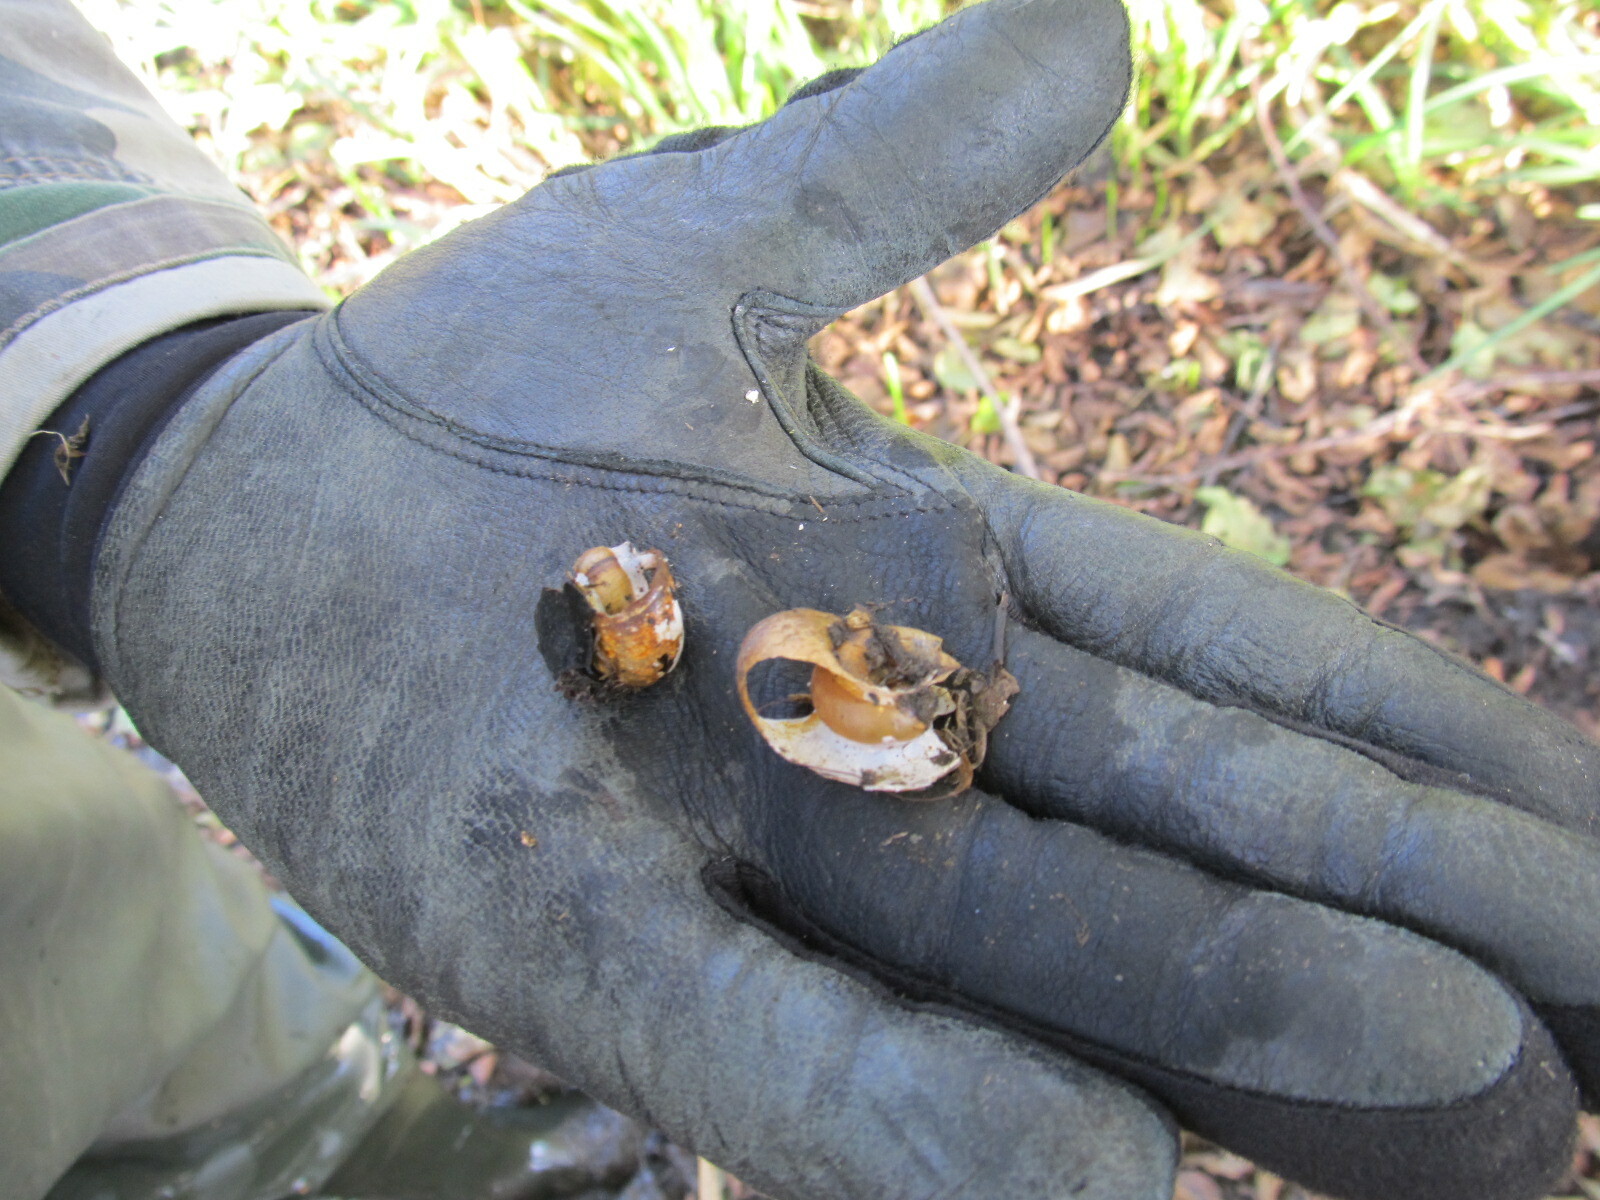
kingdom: Animalia
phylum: Mollusca
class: Gastropoda
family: Planorbidae
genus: Planorbarius
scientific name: Planorbarius corneus
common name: Great ramshorn
